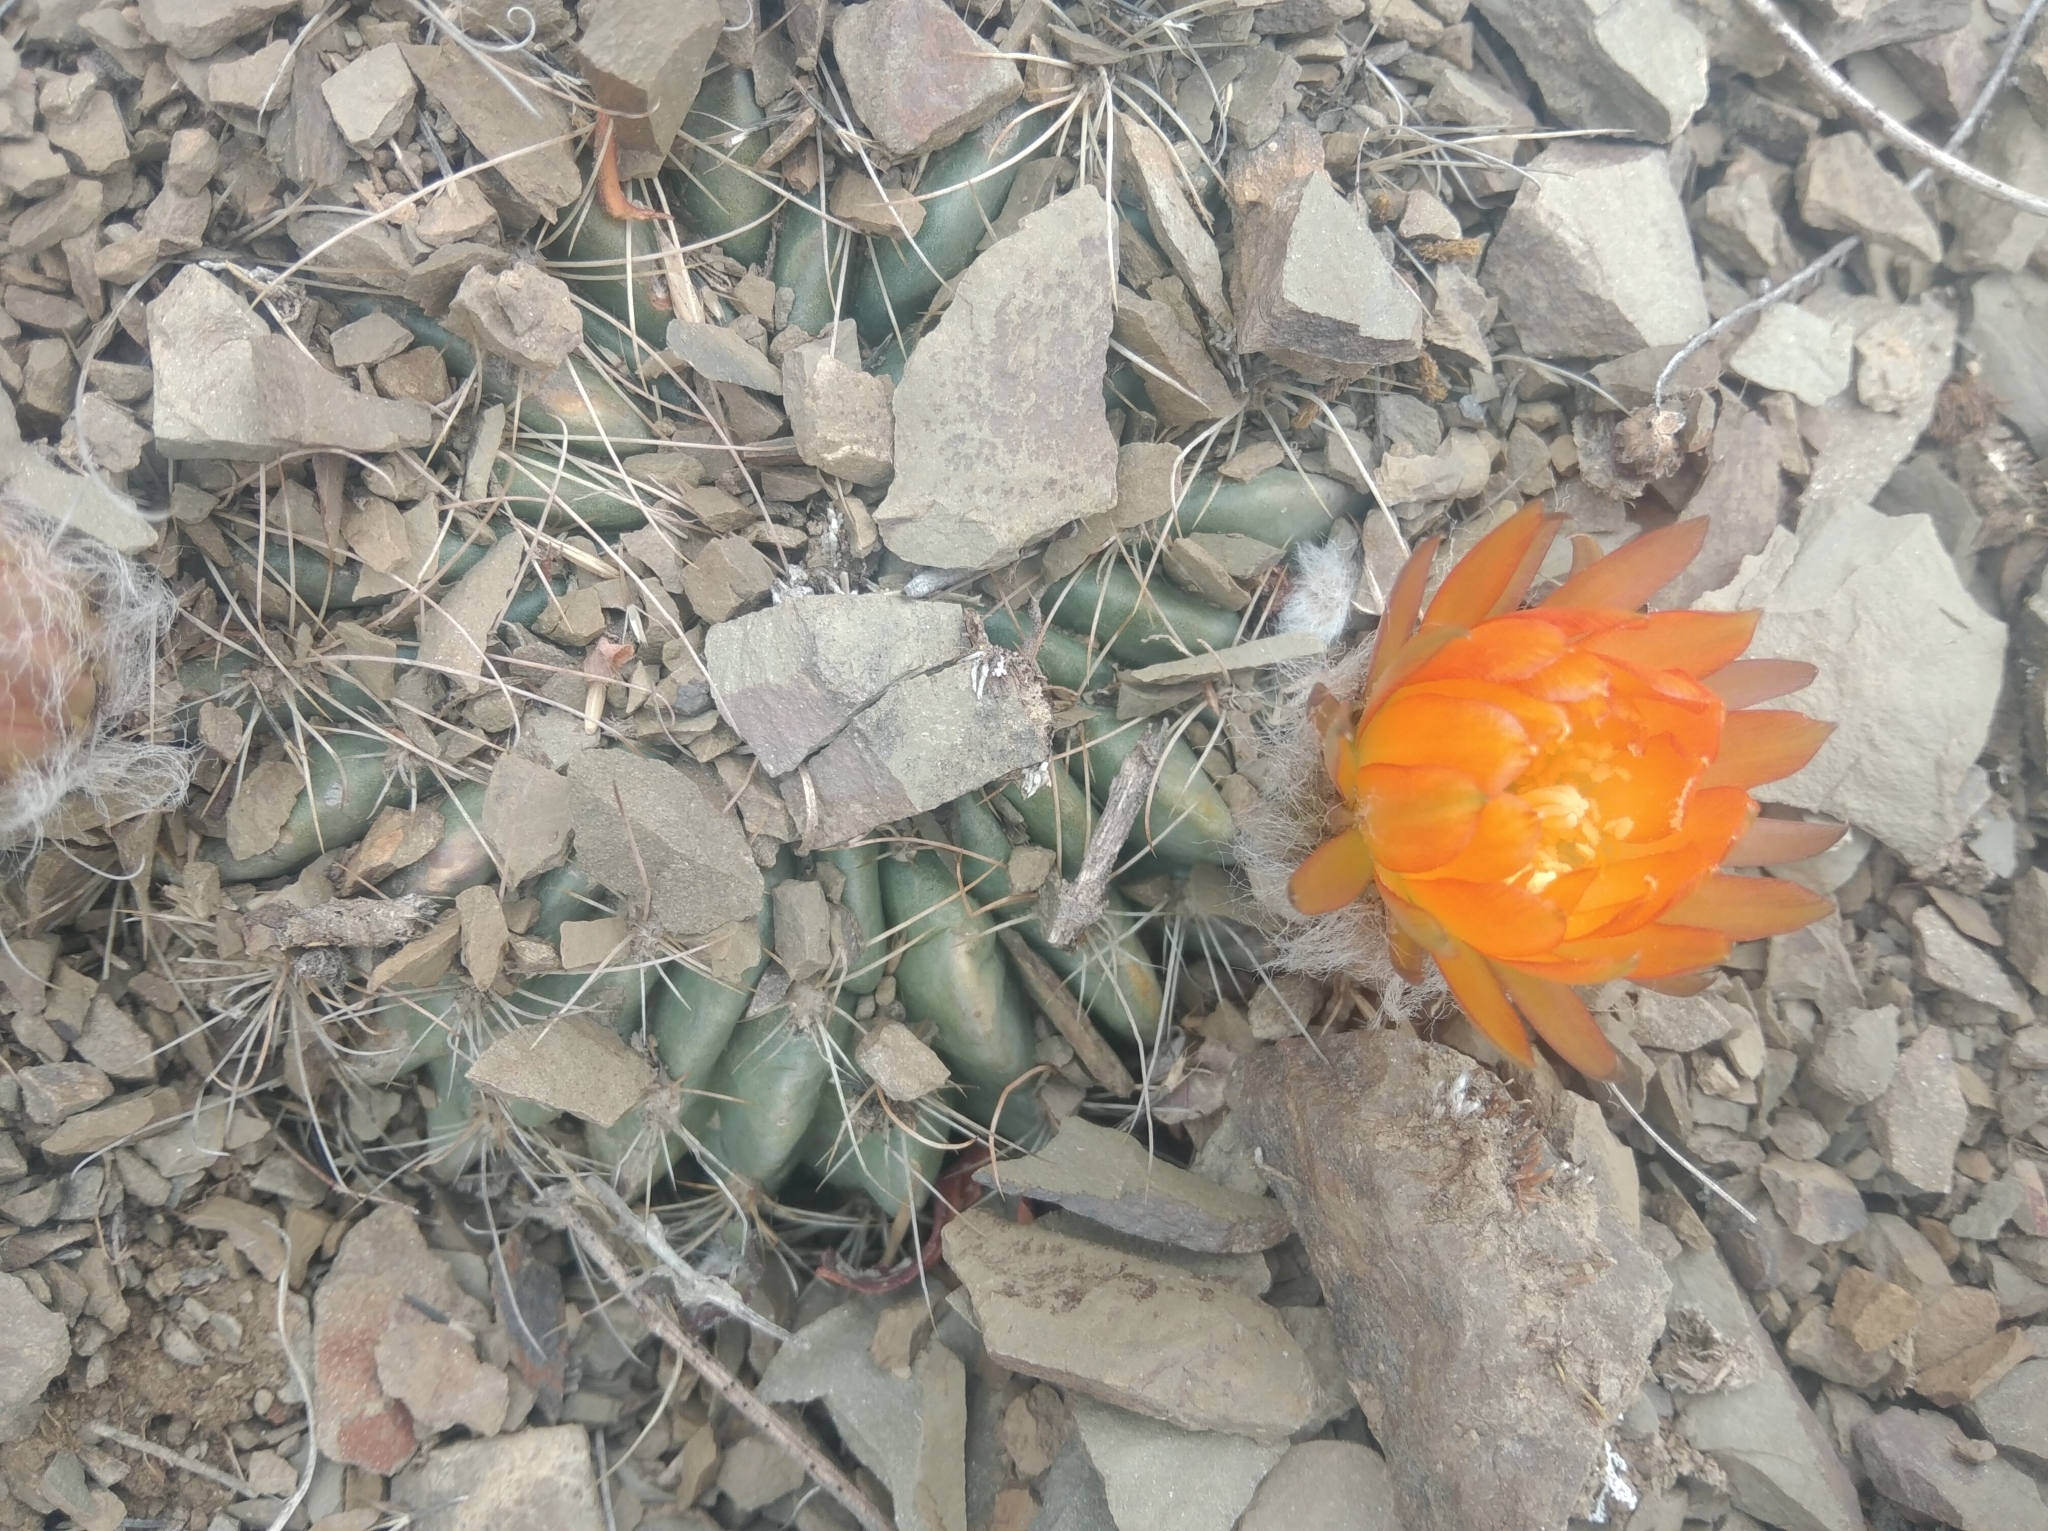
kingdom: Plantae
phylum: Tracheophyta
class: Magnoliopsida
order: Caryophyllales
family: Cactaceae
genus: Echinopsis
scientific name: Echinopsis jajoana
